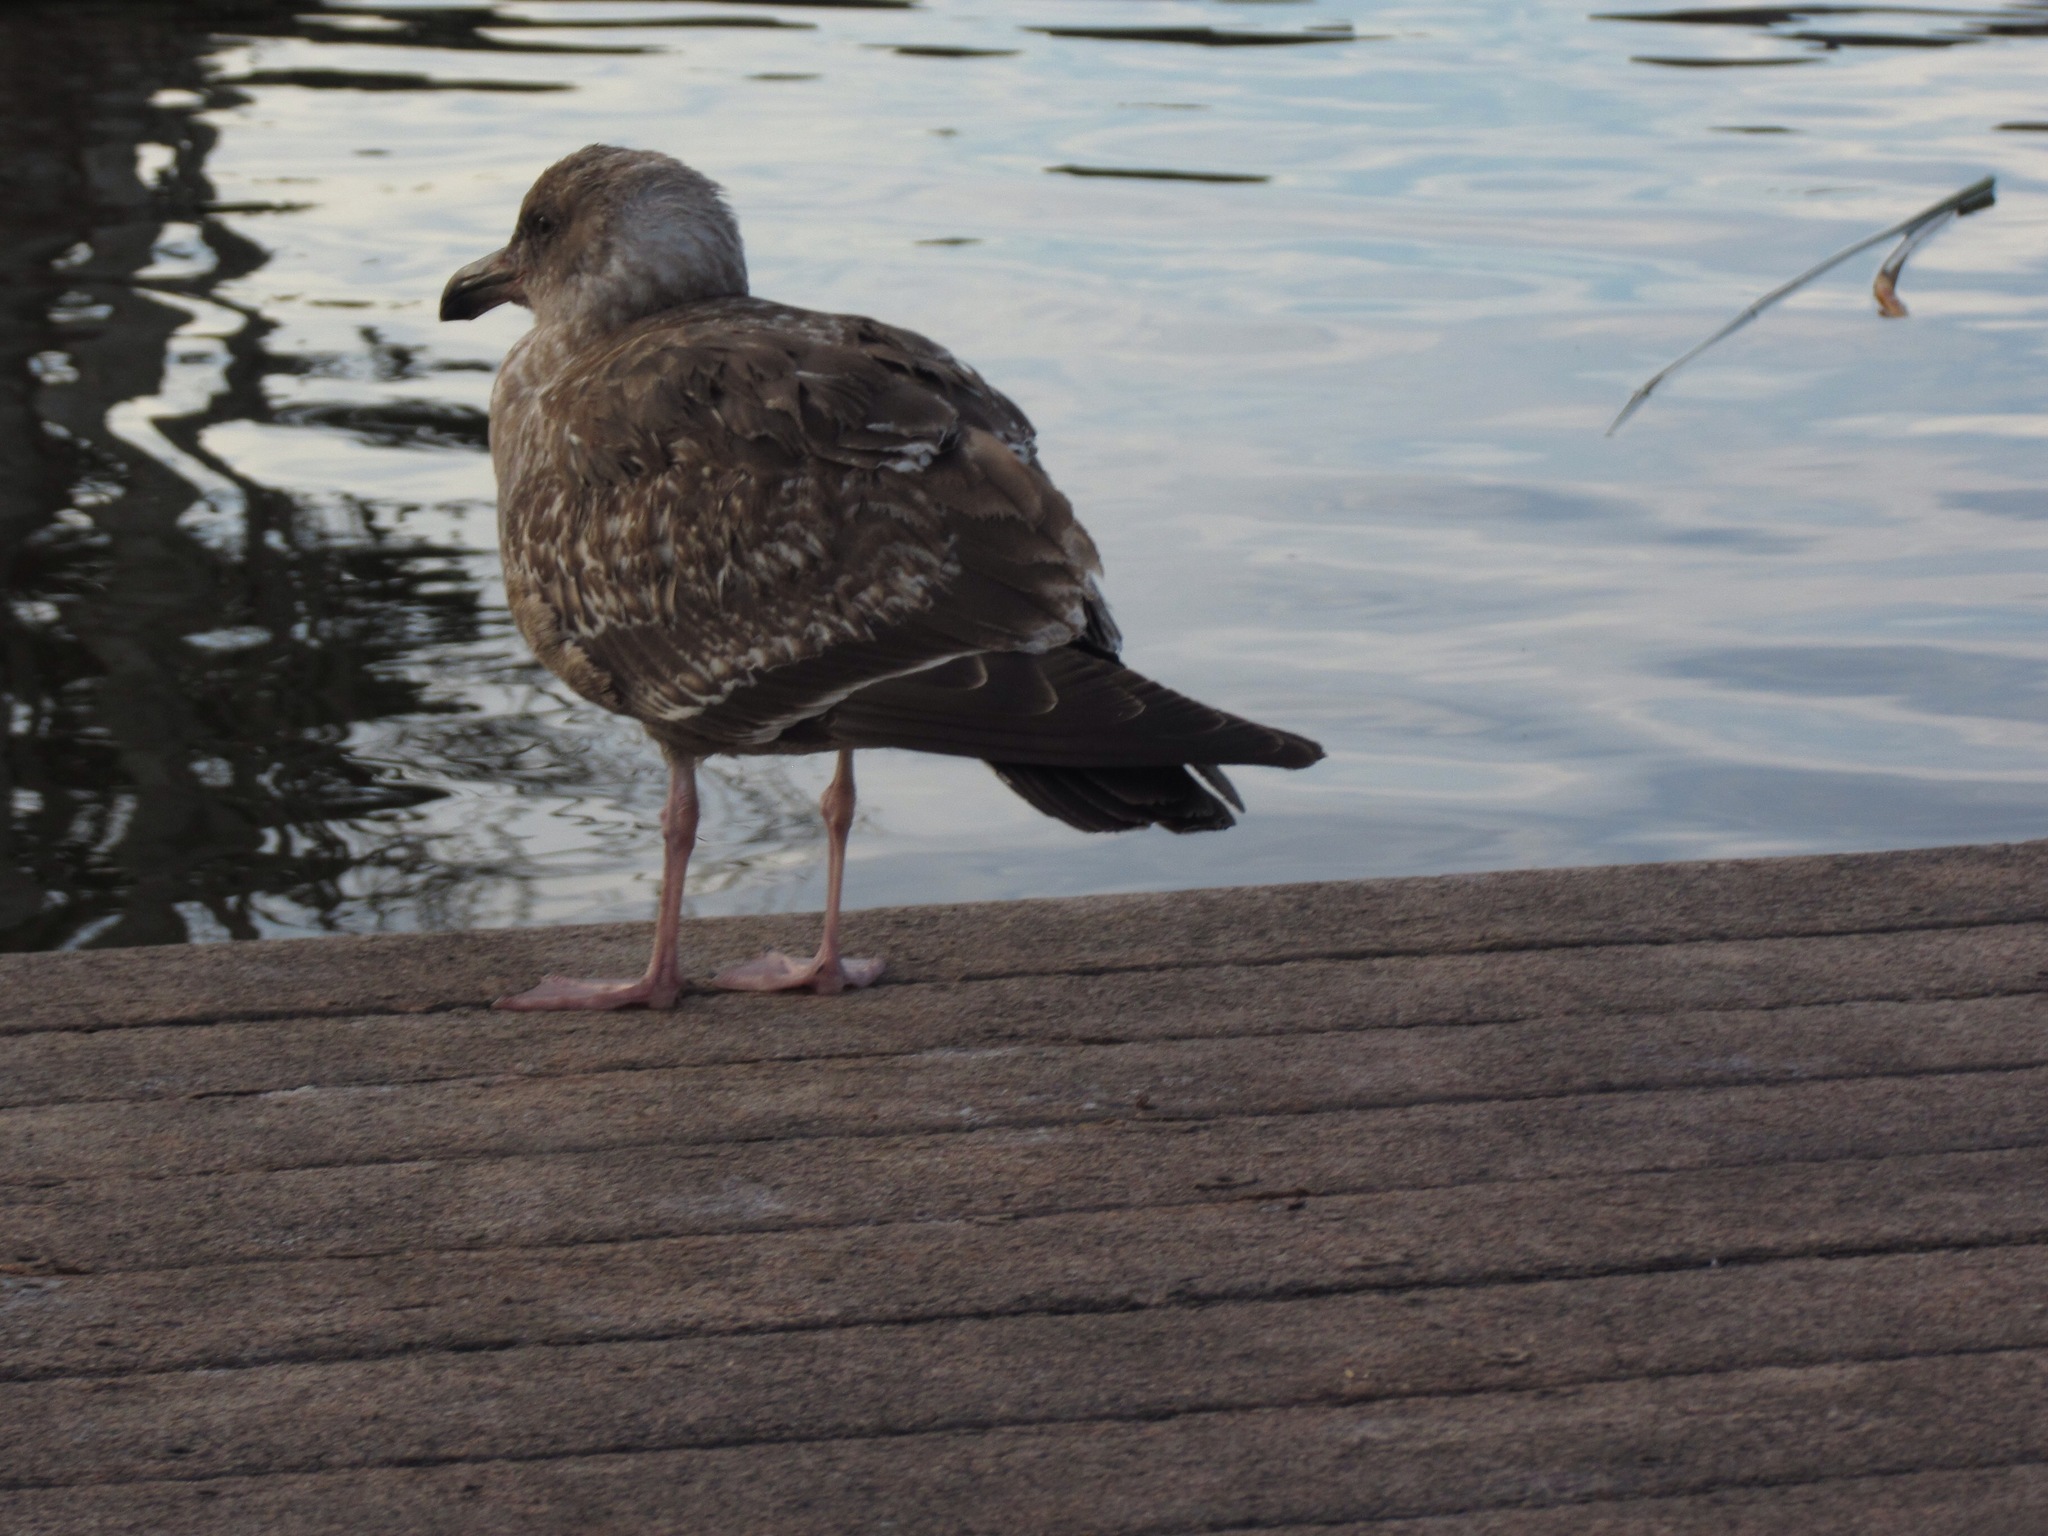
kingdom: Animalia
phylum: Chordata
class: Aves
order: Charadriiformes
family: Laridae
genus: Larus
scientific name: Larus occidentalis
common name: Western gull
